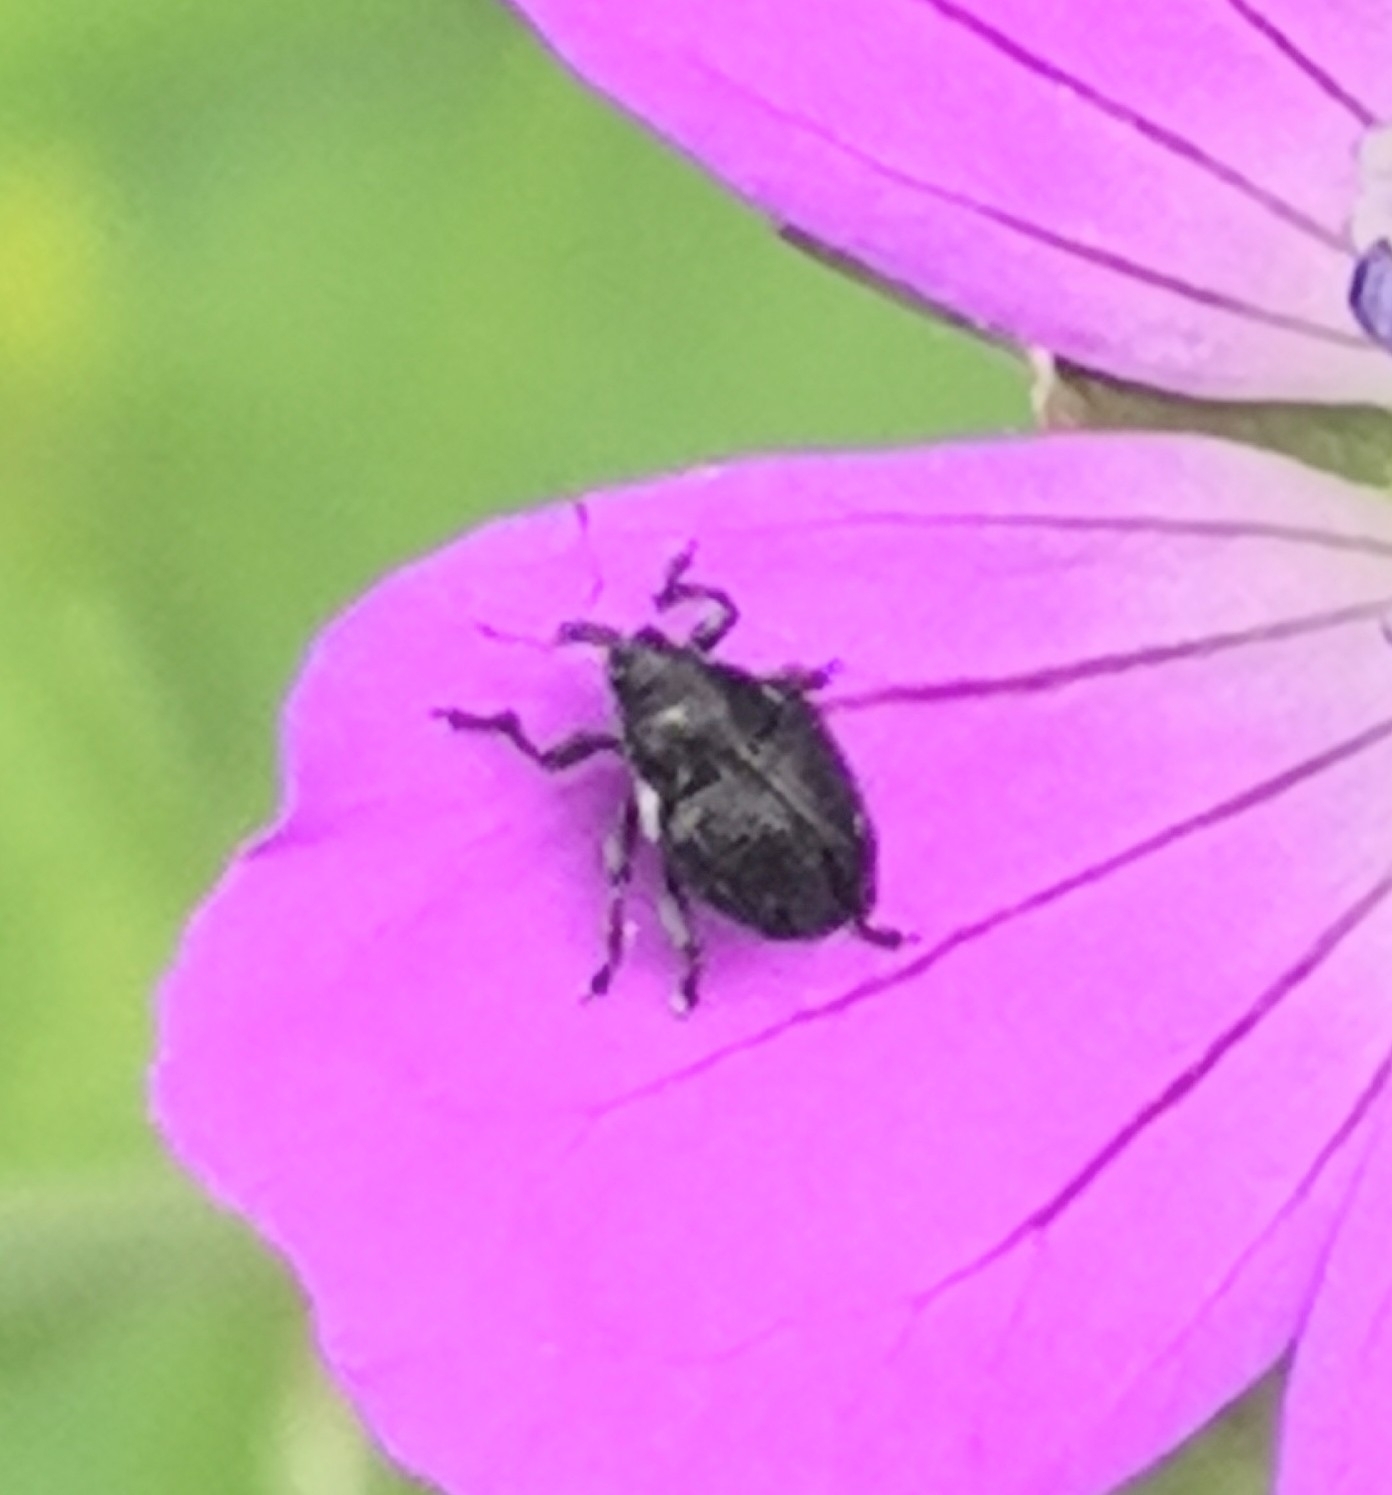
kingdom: Animalia
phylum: Arthropoda
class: Insecta
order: Coleoptera
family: Curculionidae
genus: Zacladus
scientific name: Zacladus geranii
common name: Meadow cranesbill weevil
